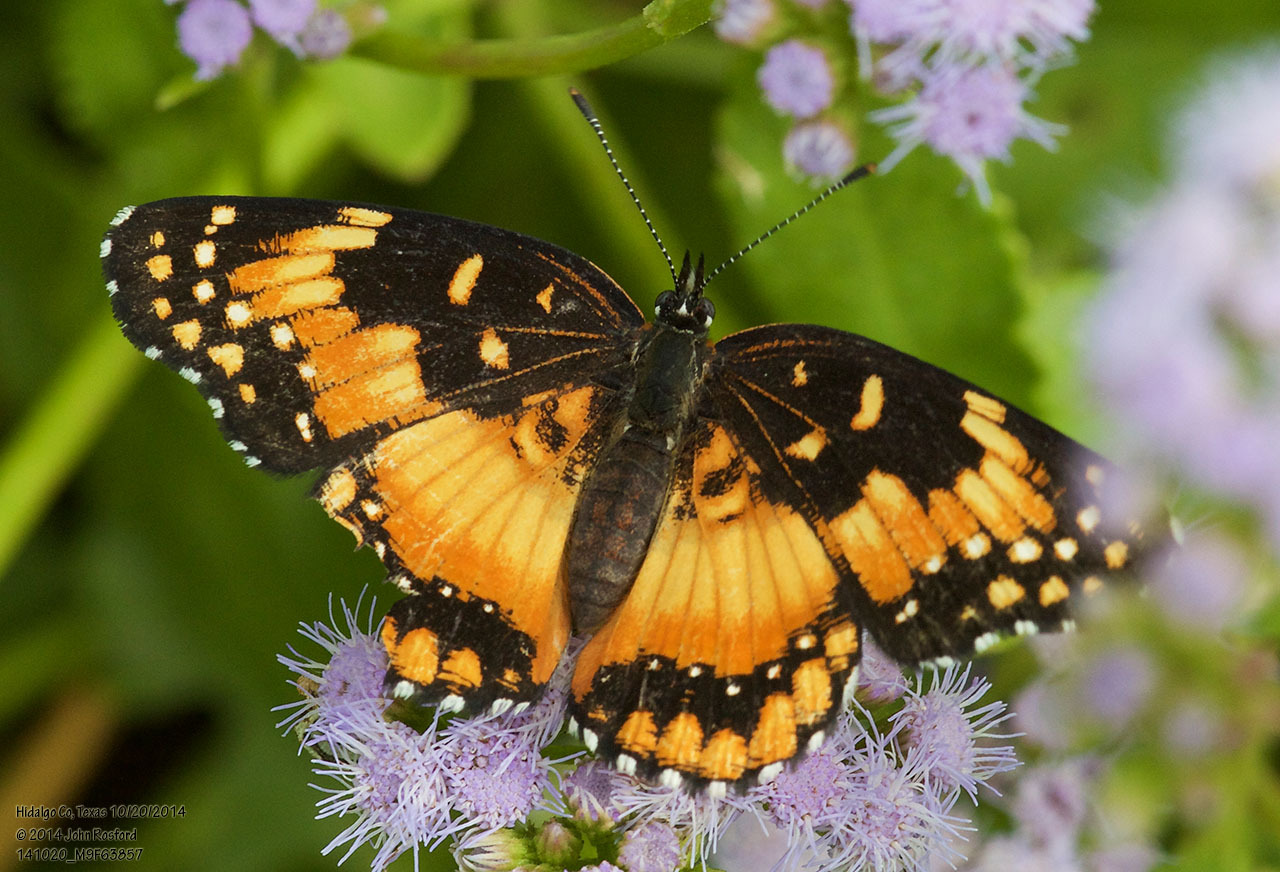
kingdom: Animalia
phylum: Arthropoda
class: Insecta
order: Lepidoptera
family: Nymphalidae
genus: Chlosyne
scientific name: Chlosyne lacinia
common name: Bordered patch
